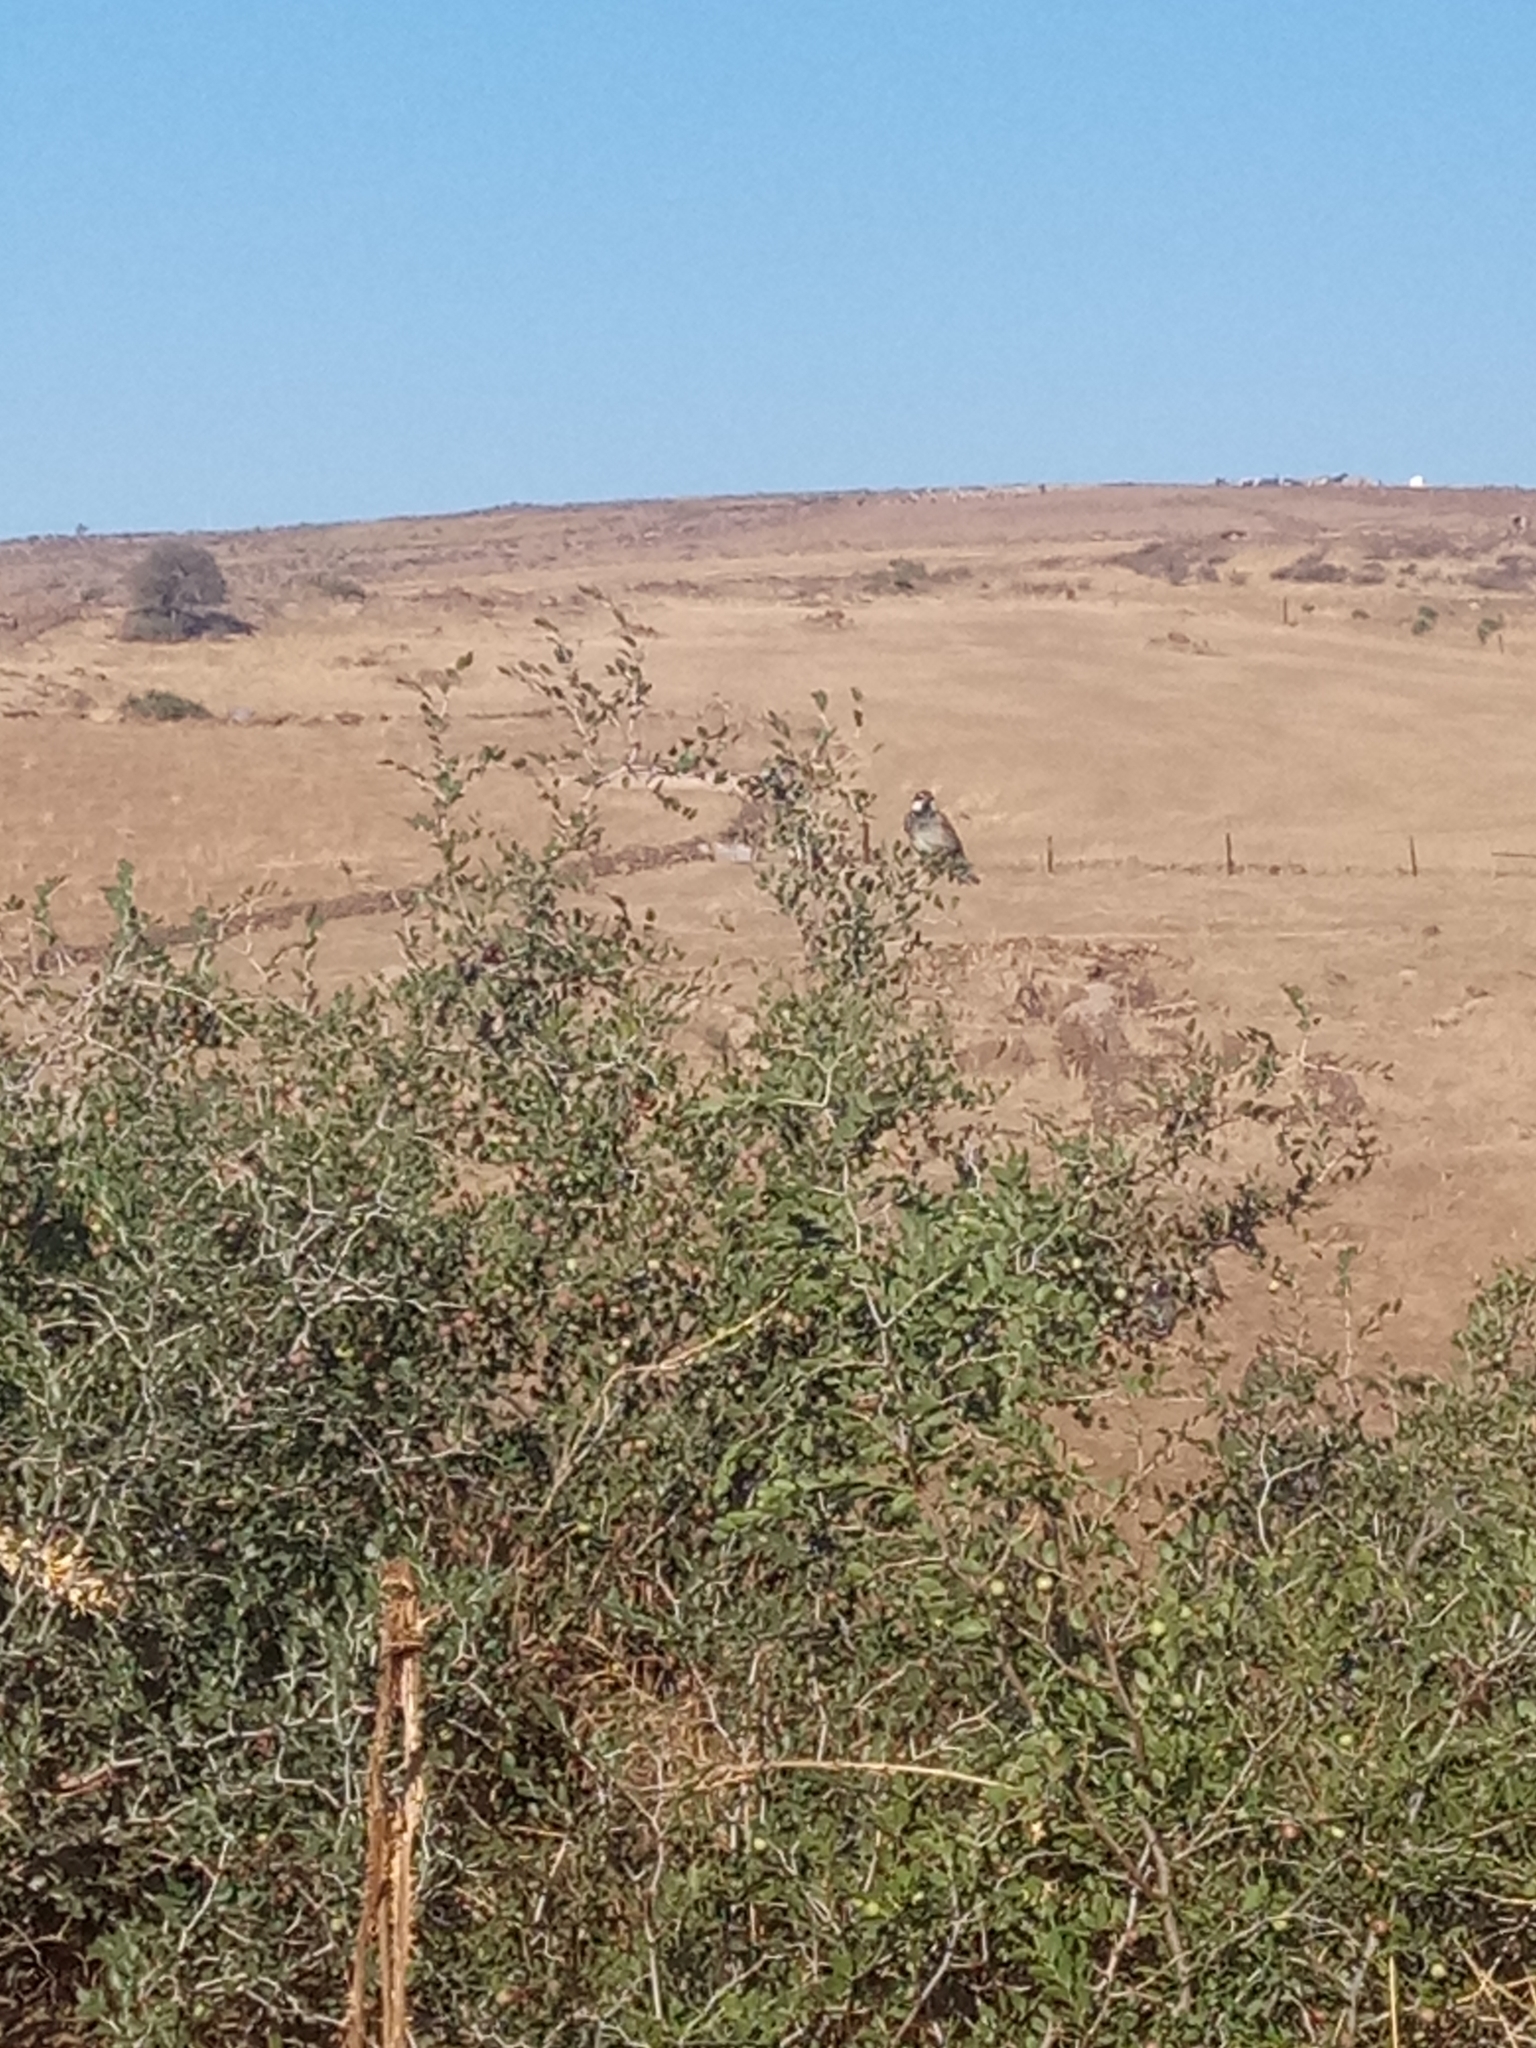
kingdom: Animalia
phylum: Chordata
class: Aves
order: Passeriformes
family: Passeridae
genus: Passer
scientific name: Passer hispaniolensis
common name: Spanish sparrow
